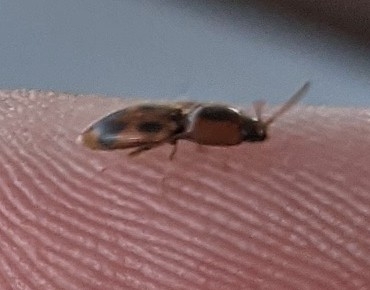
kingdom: Animalia
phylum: Arthropoda
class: Insecta
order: Coleoptera
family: Elateridae
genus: Aeolus
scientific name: Aeolus mellillus
